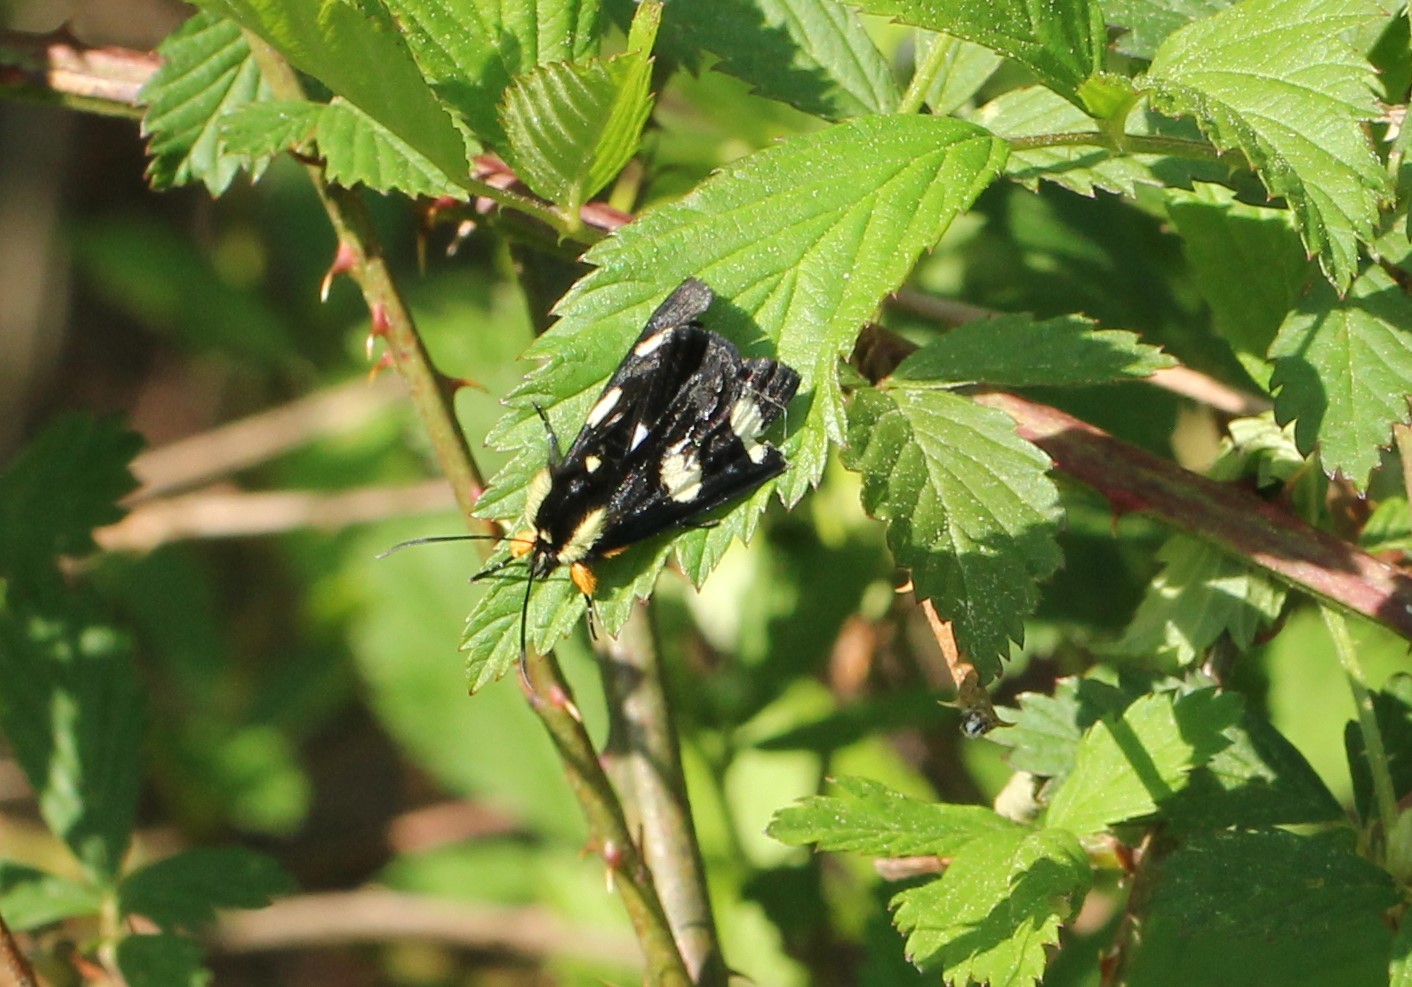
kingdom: Animalia
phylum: Arthropoda
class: Insecta
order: Lepidoptera
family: Noctuidae
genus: Alypia
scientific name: Alypia octomaculata
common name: Eight-spotted forester
